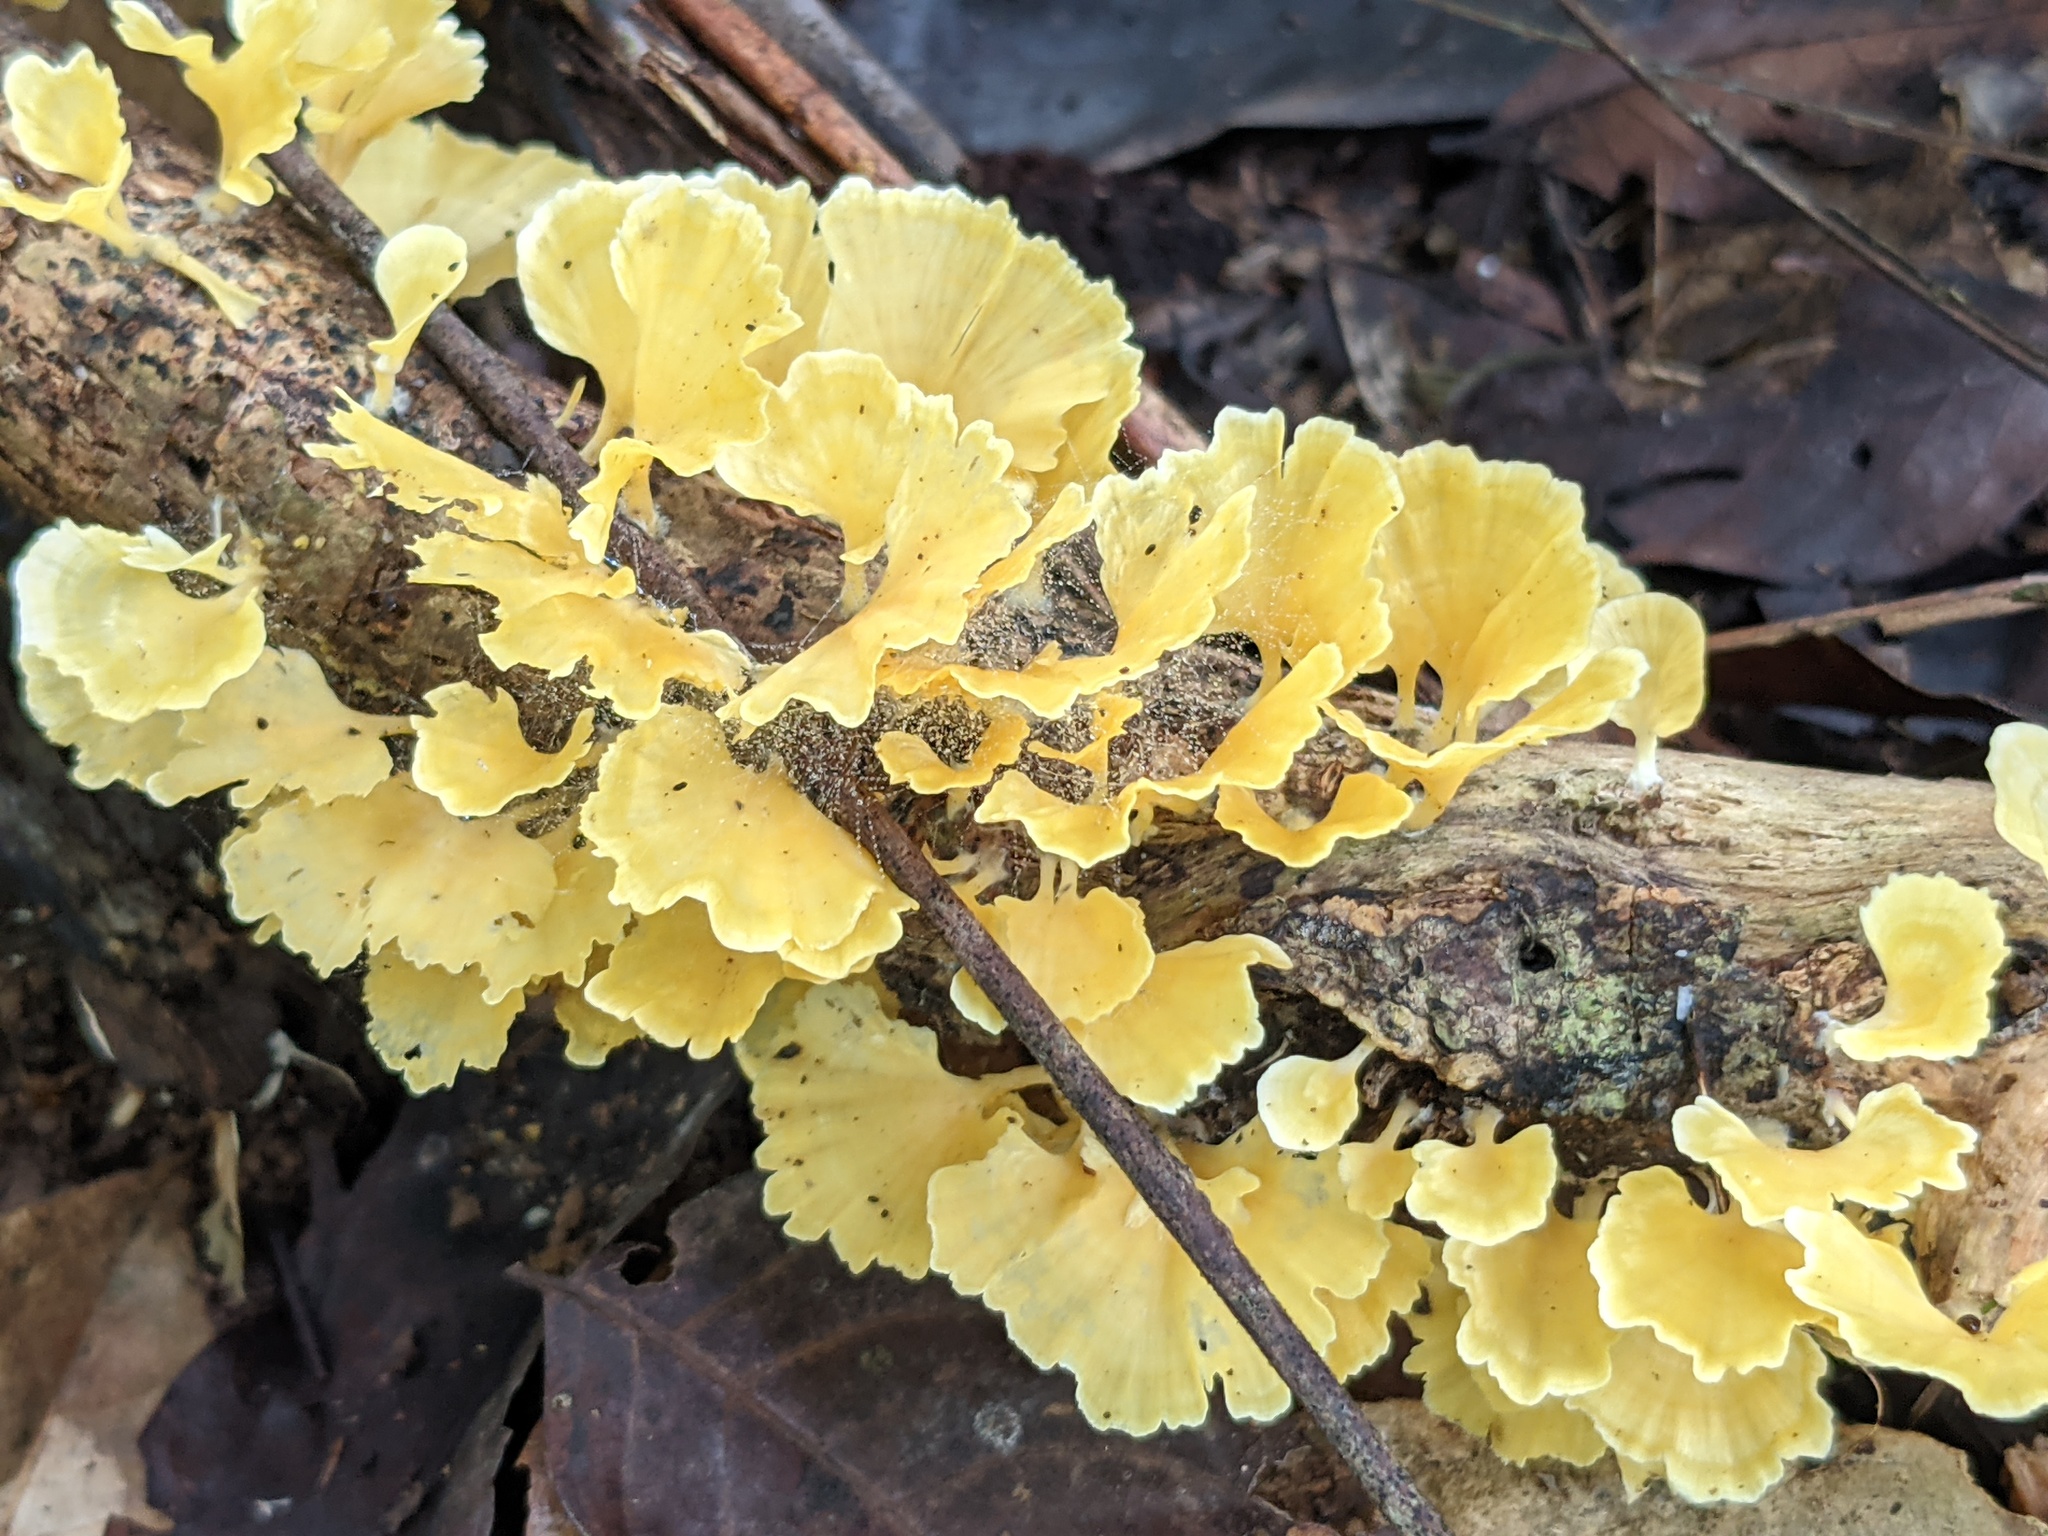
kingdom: Fungi
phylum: Basidiomycota
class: Agaricomycetes
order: Hymenochaetales
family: Rickenellaceae
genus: Cotylidia
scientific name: Cotylidia aurantiaca
